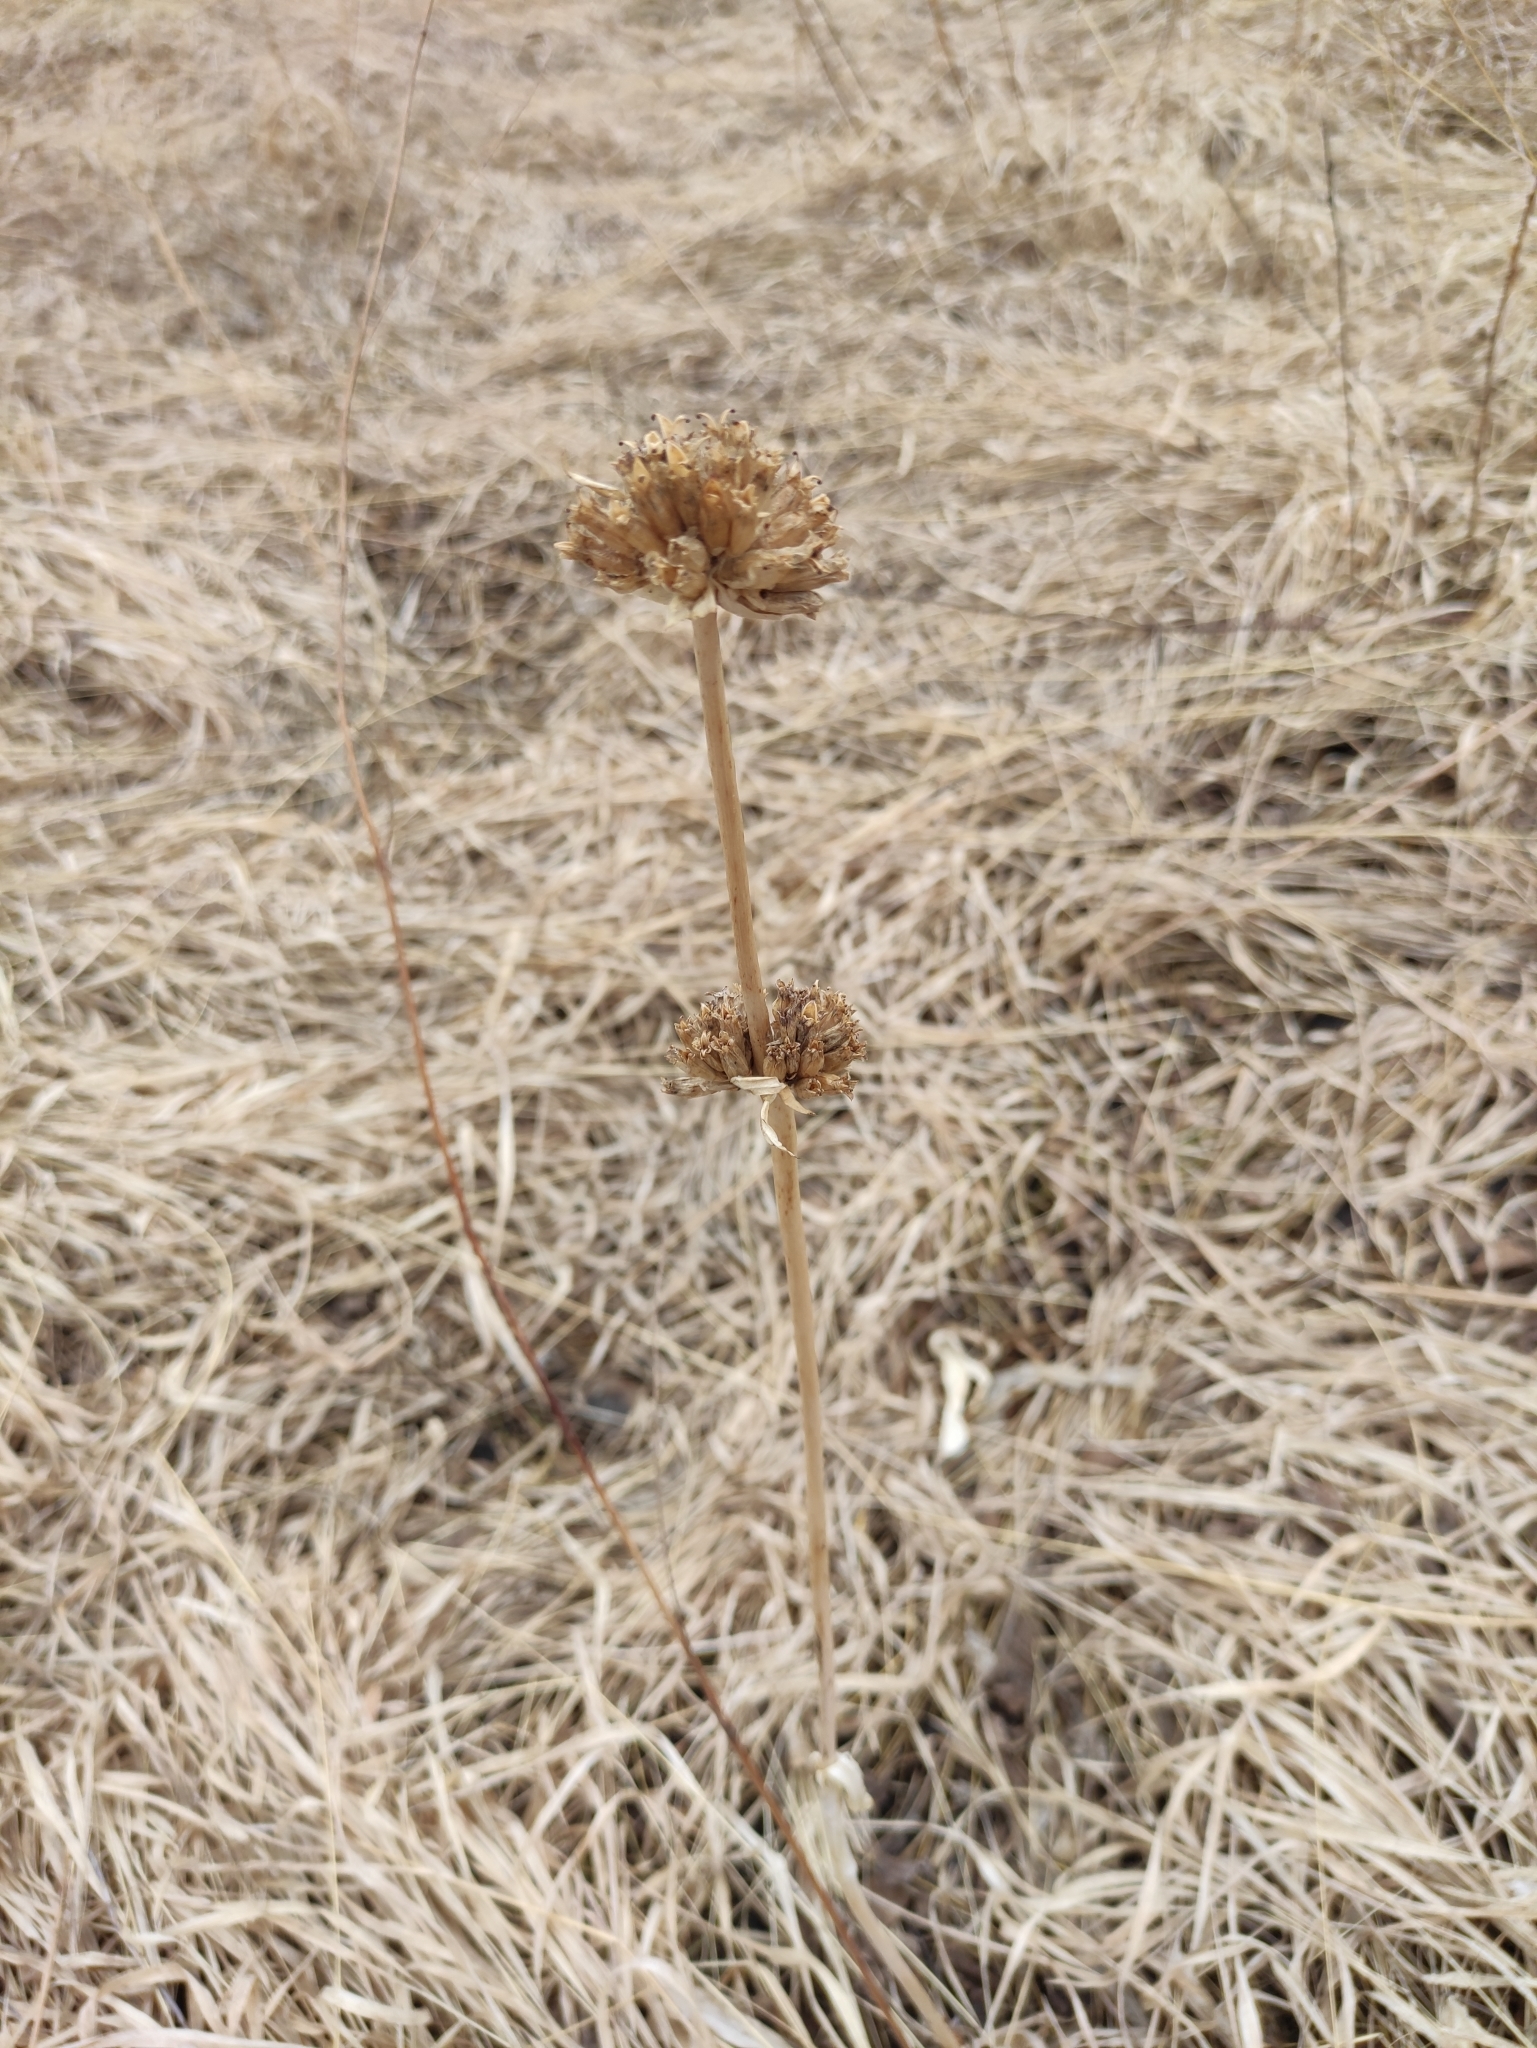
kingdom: Plantae
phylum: Tracheophyta
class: Magnoliopsida
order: Gentianales
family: Gentianaceae
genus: Gentiana
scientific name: Gentiana macrophylla
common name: Large-leaf gentian
